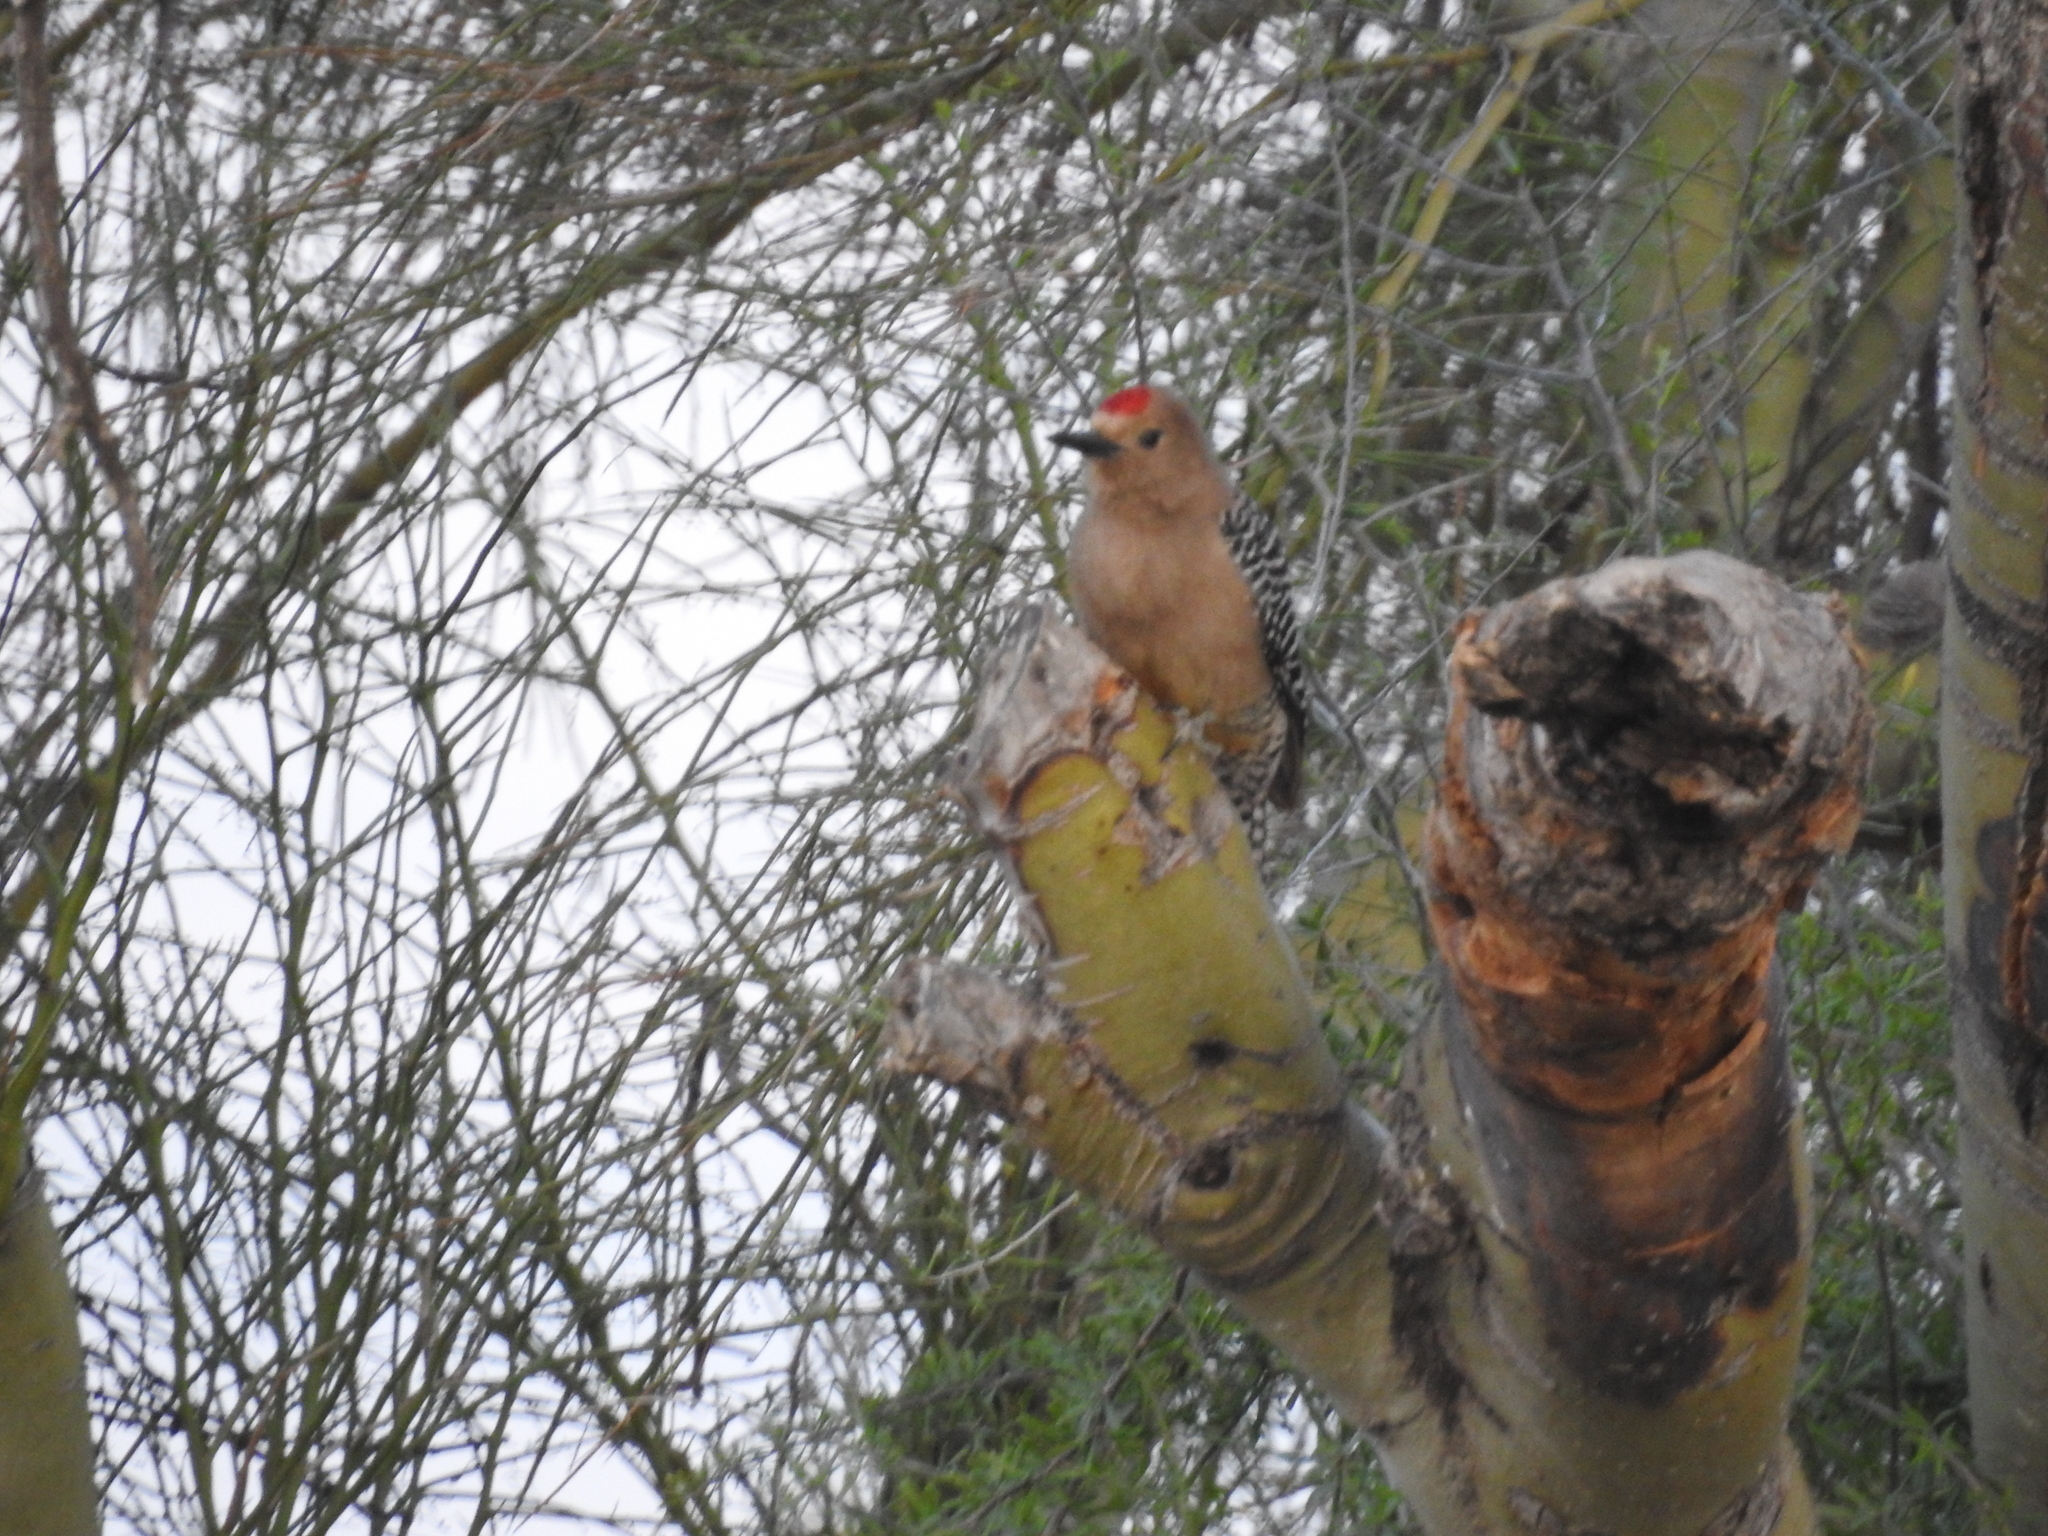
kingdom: Animalia
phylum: Chordata
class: Aves
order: Piciformes
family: Picidae
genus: Melanerpes
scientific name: Melanerpes uropygialis
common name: Gila woodpecker
